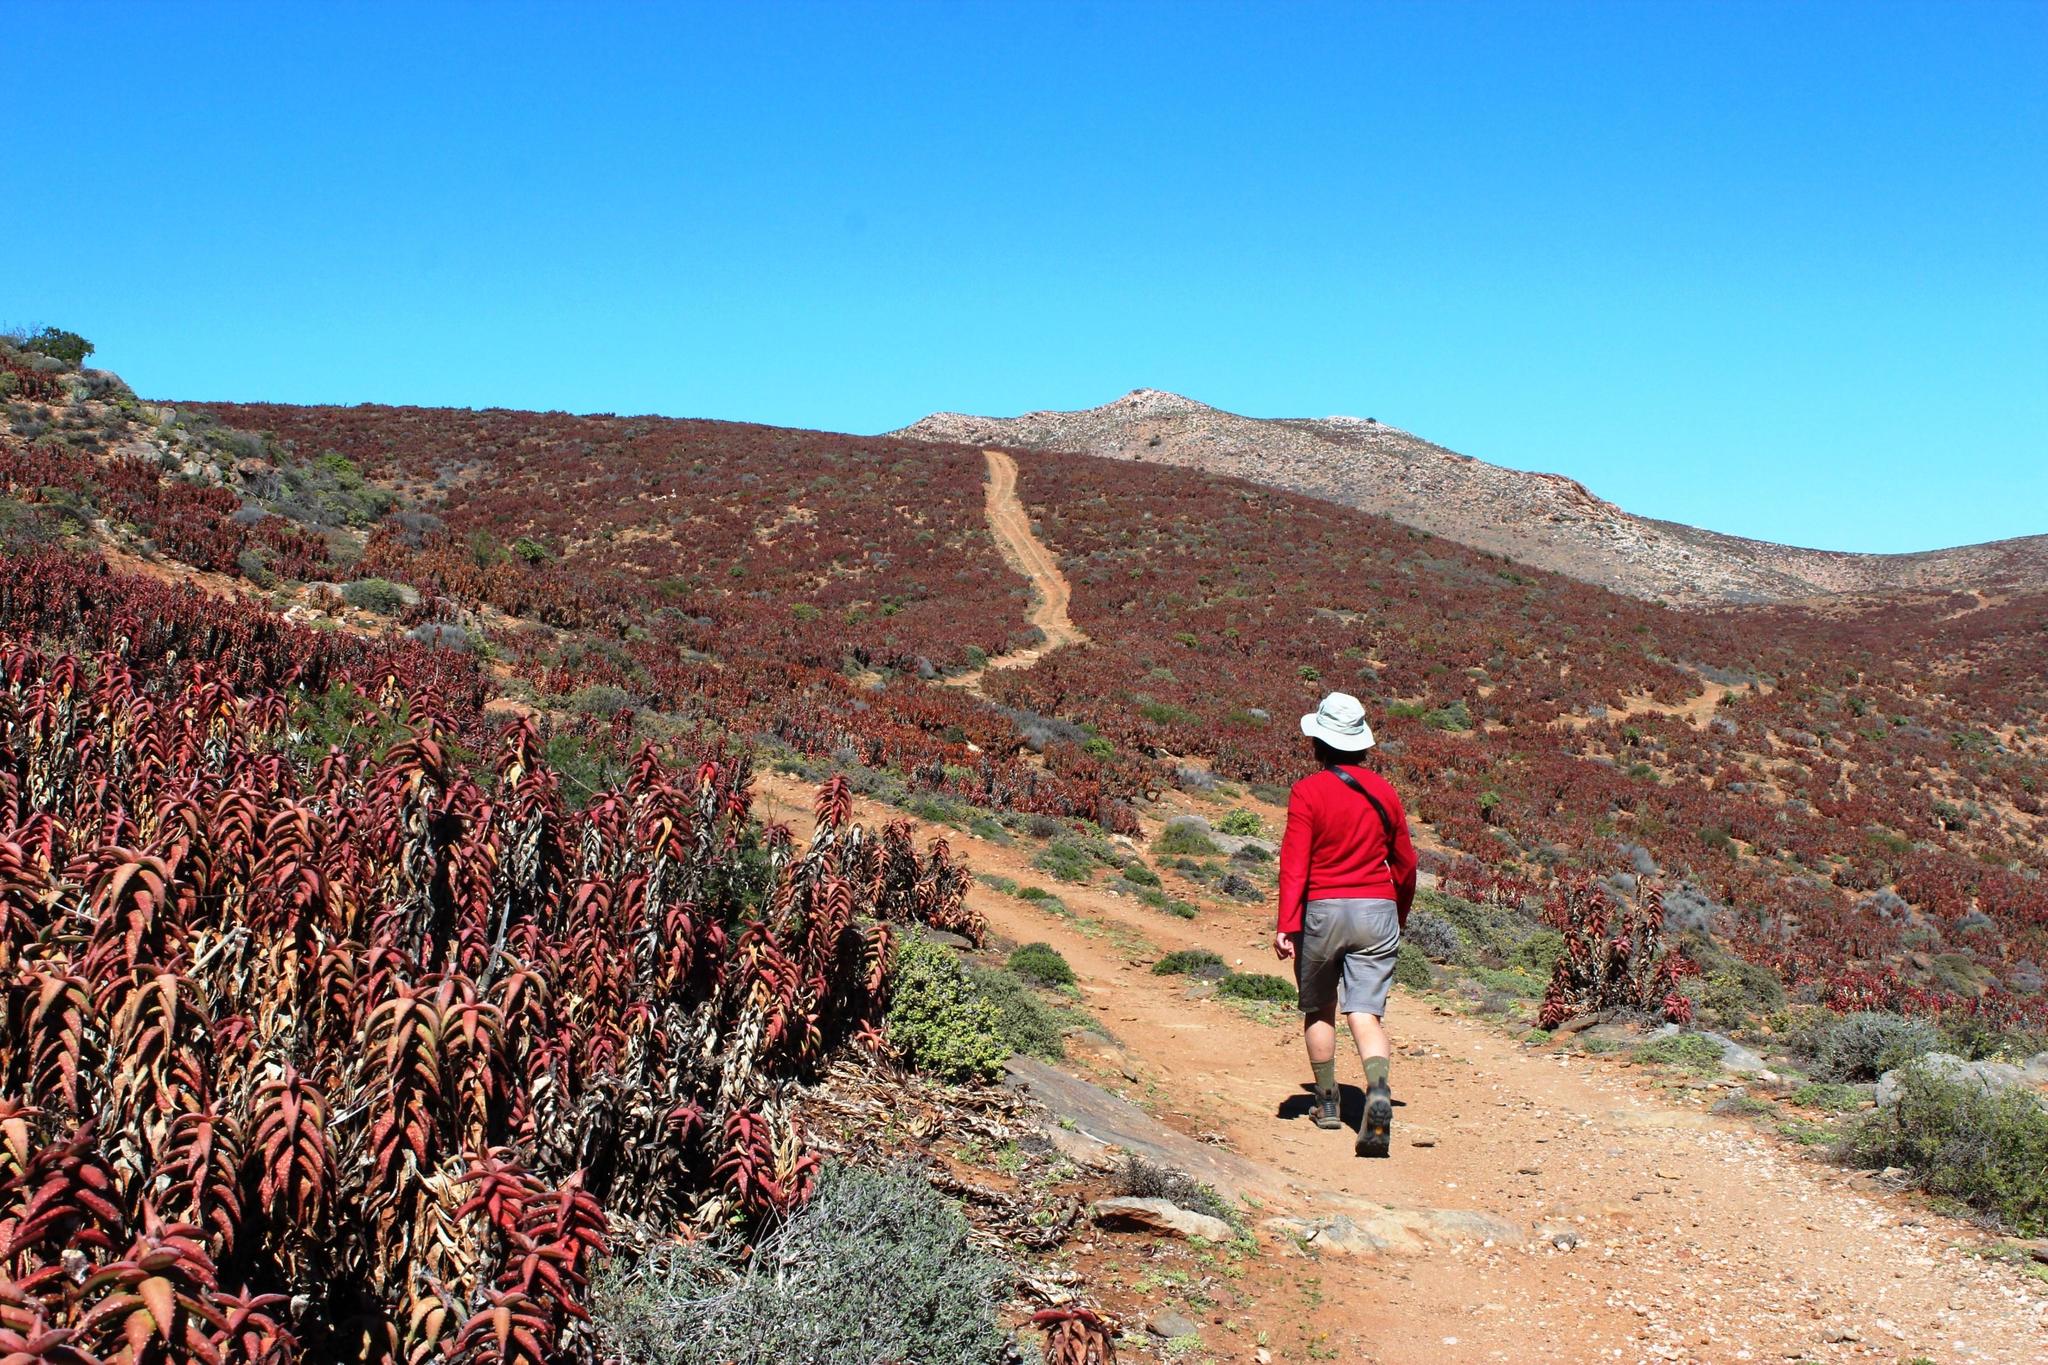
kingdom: Plantae
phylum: Tracheophyta
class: Liliopsida
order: Asparagales
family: Asphodelaceae
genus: Aloe
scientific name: Aloe pearsonii
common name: Pearson's aloe
